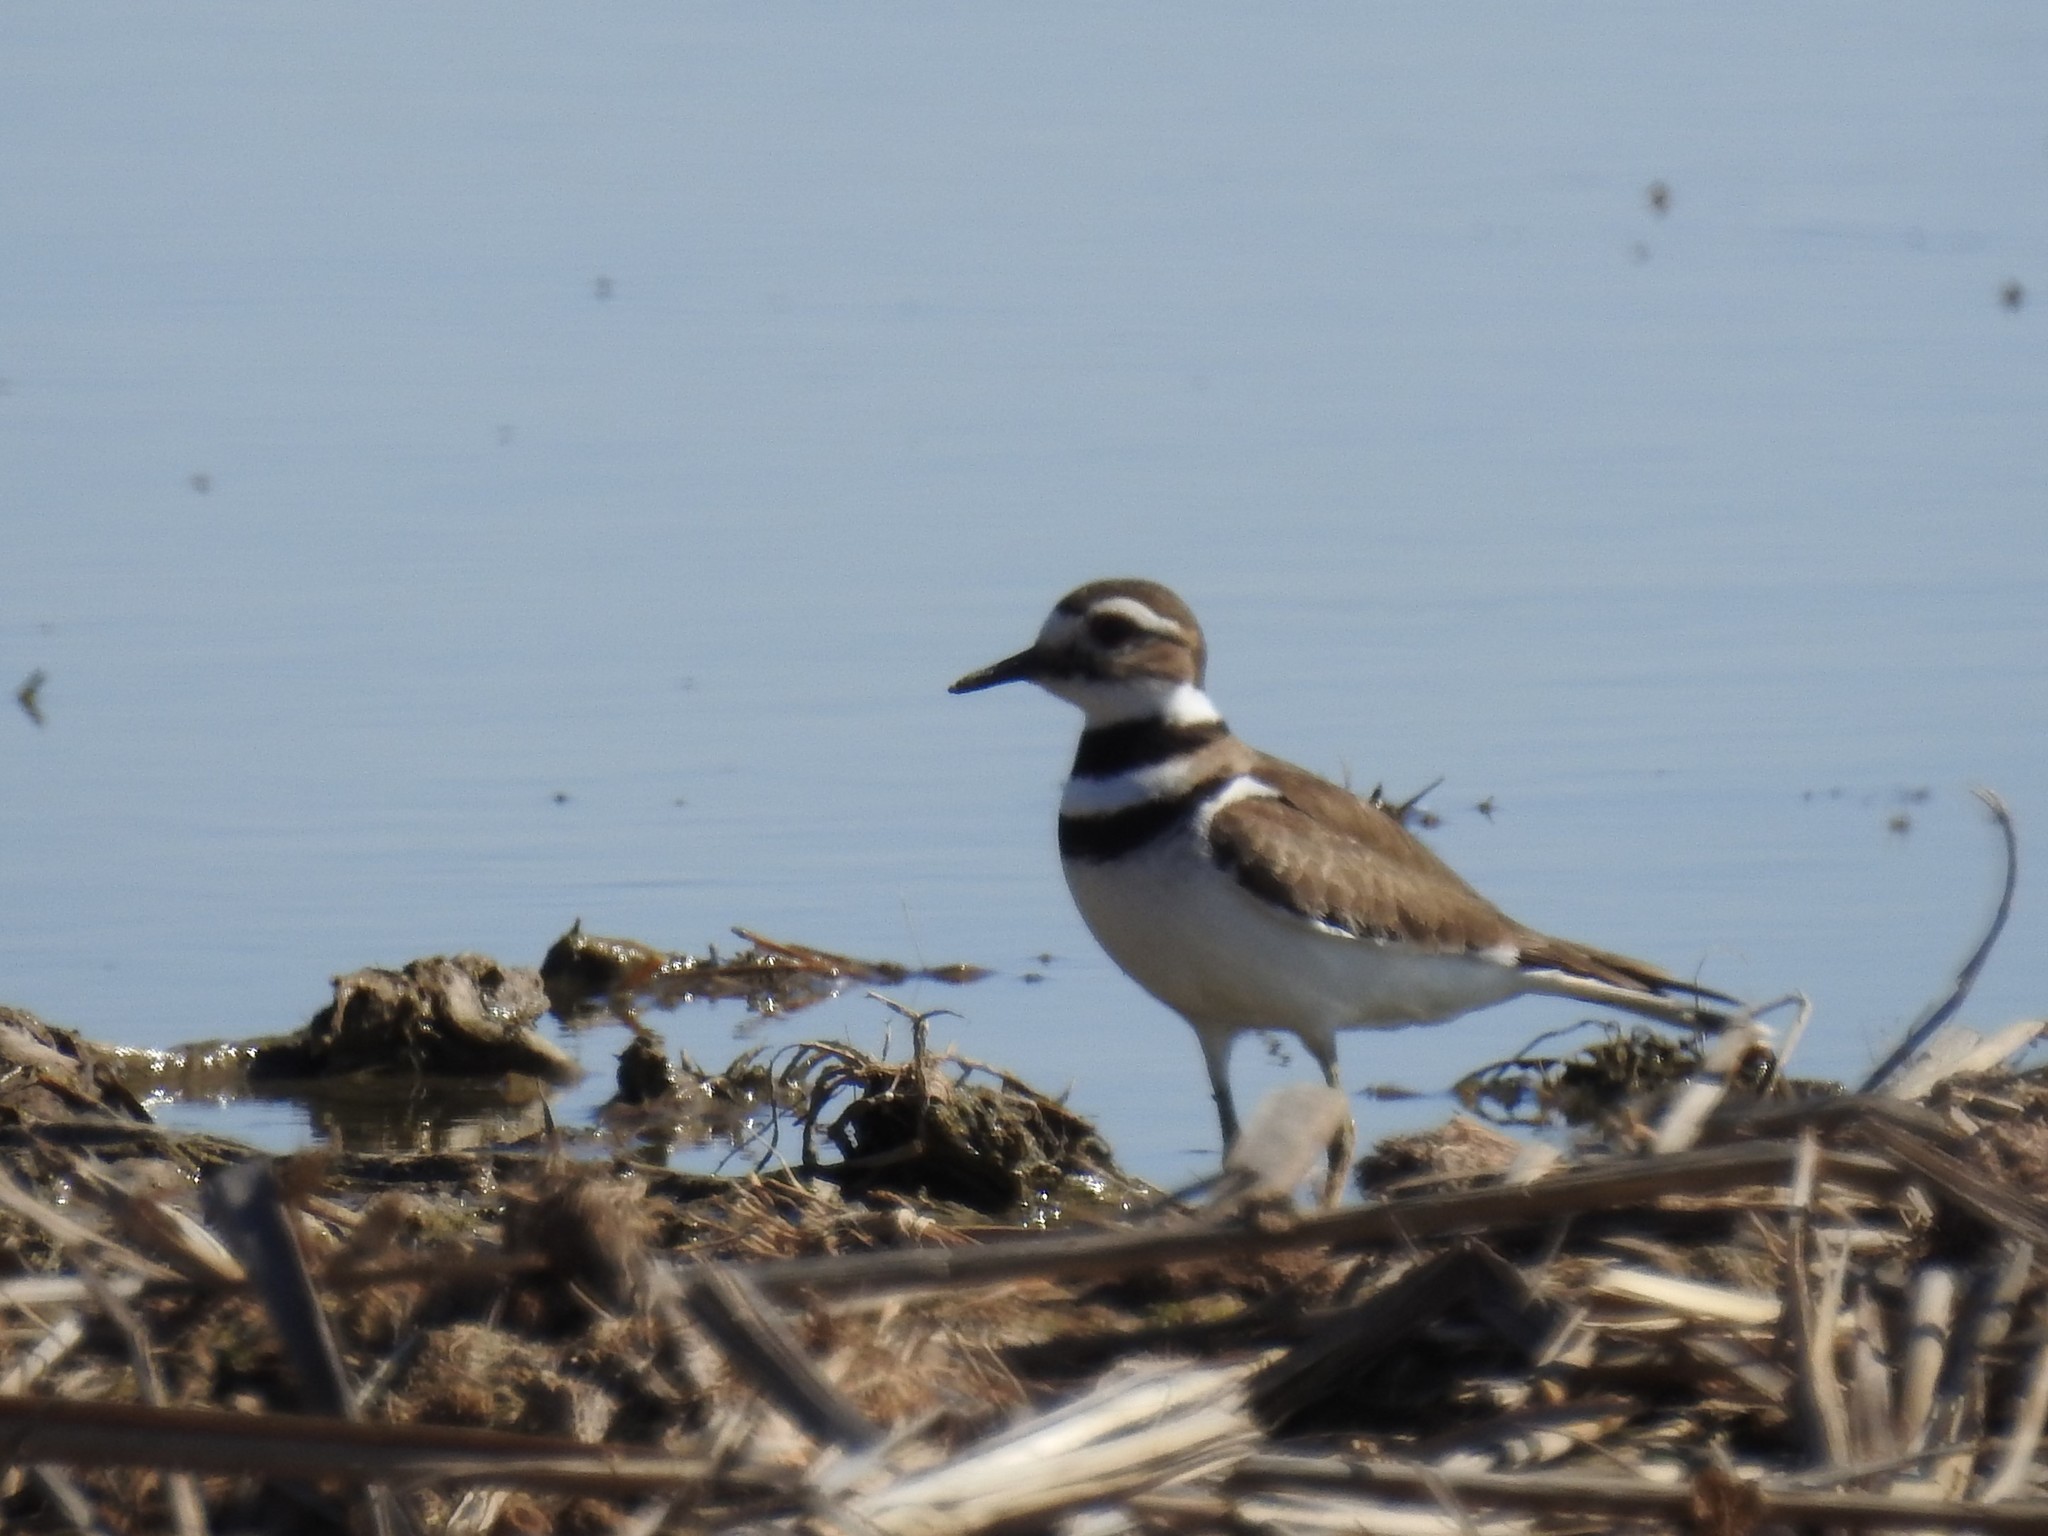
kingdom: Animalia
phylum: Chordata
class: Aves
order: Charadriiformes
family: Charadriidae
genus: Charadrius
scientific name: Charadrius vociferus
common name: Killdeer
